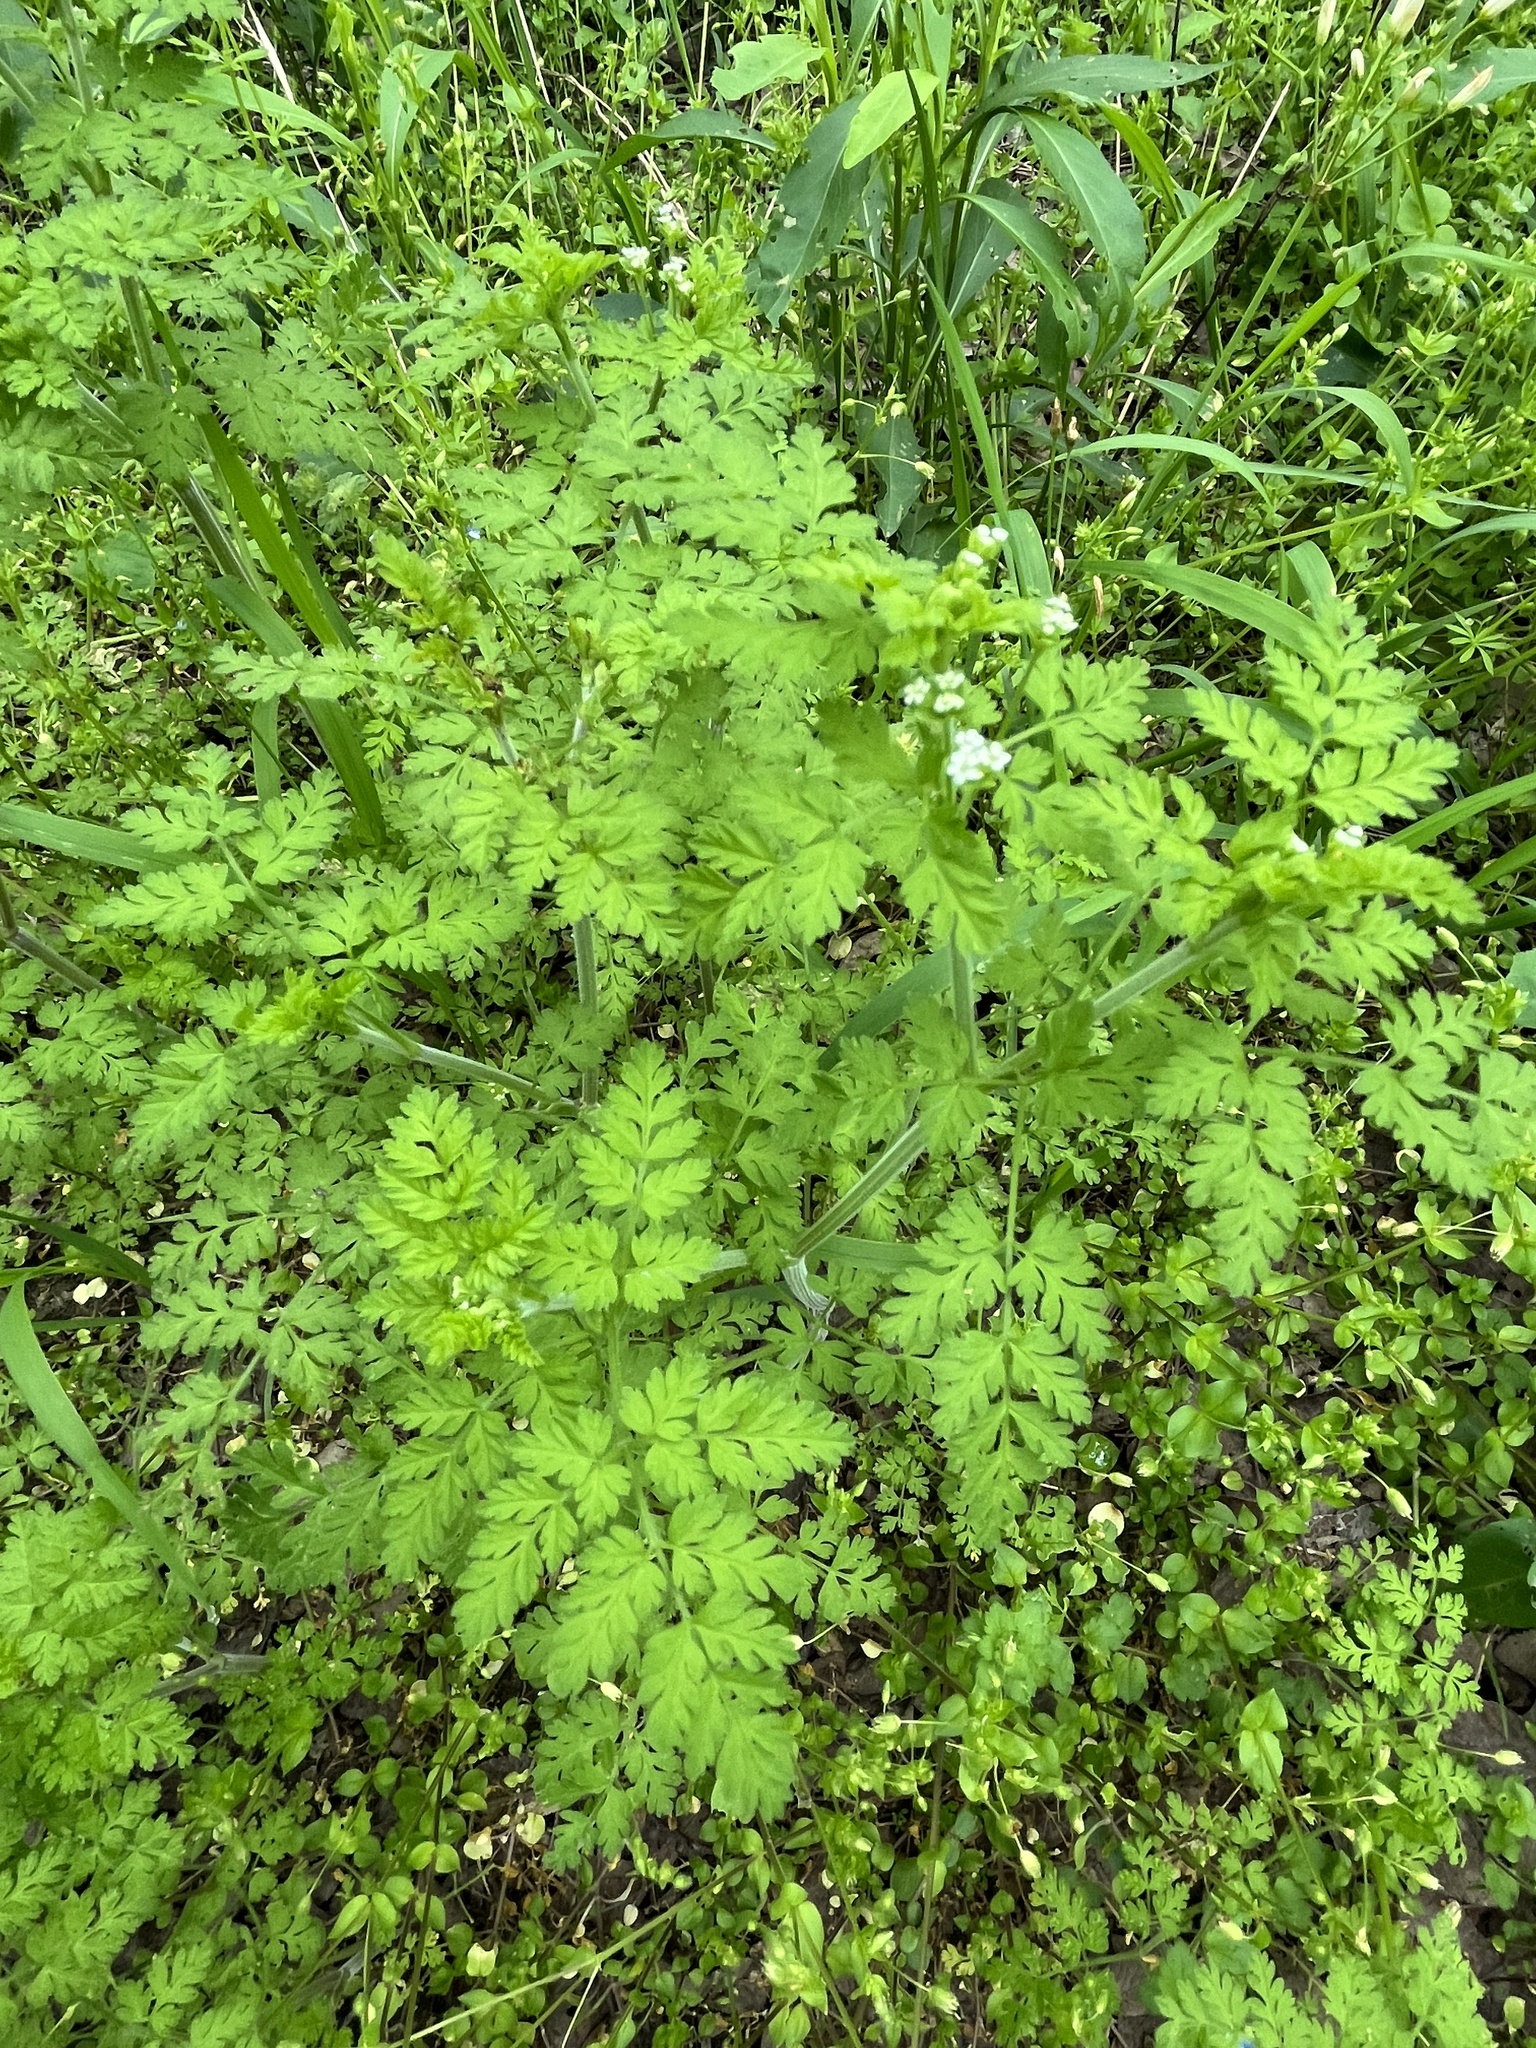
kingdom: Plantae
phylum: Tracheophyta
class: Magnoliopsida
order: Apiales
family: Apiaceae
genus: Chaerophyllum
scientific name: Chaerophyllum tainturieri
